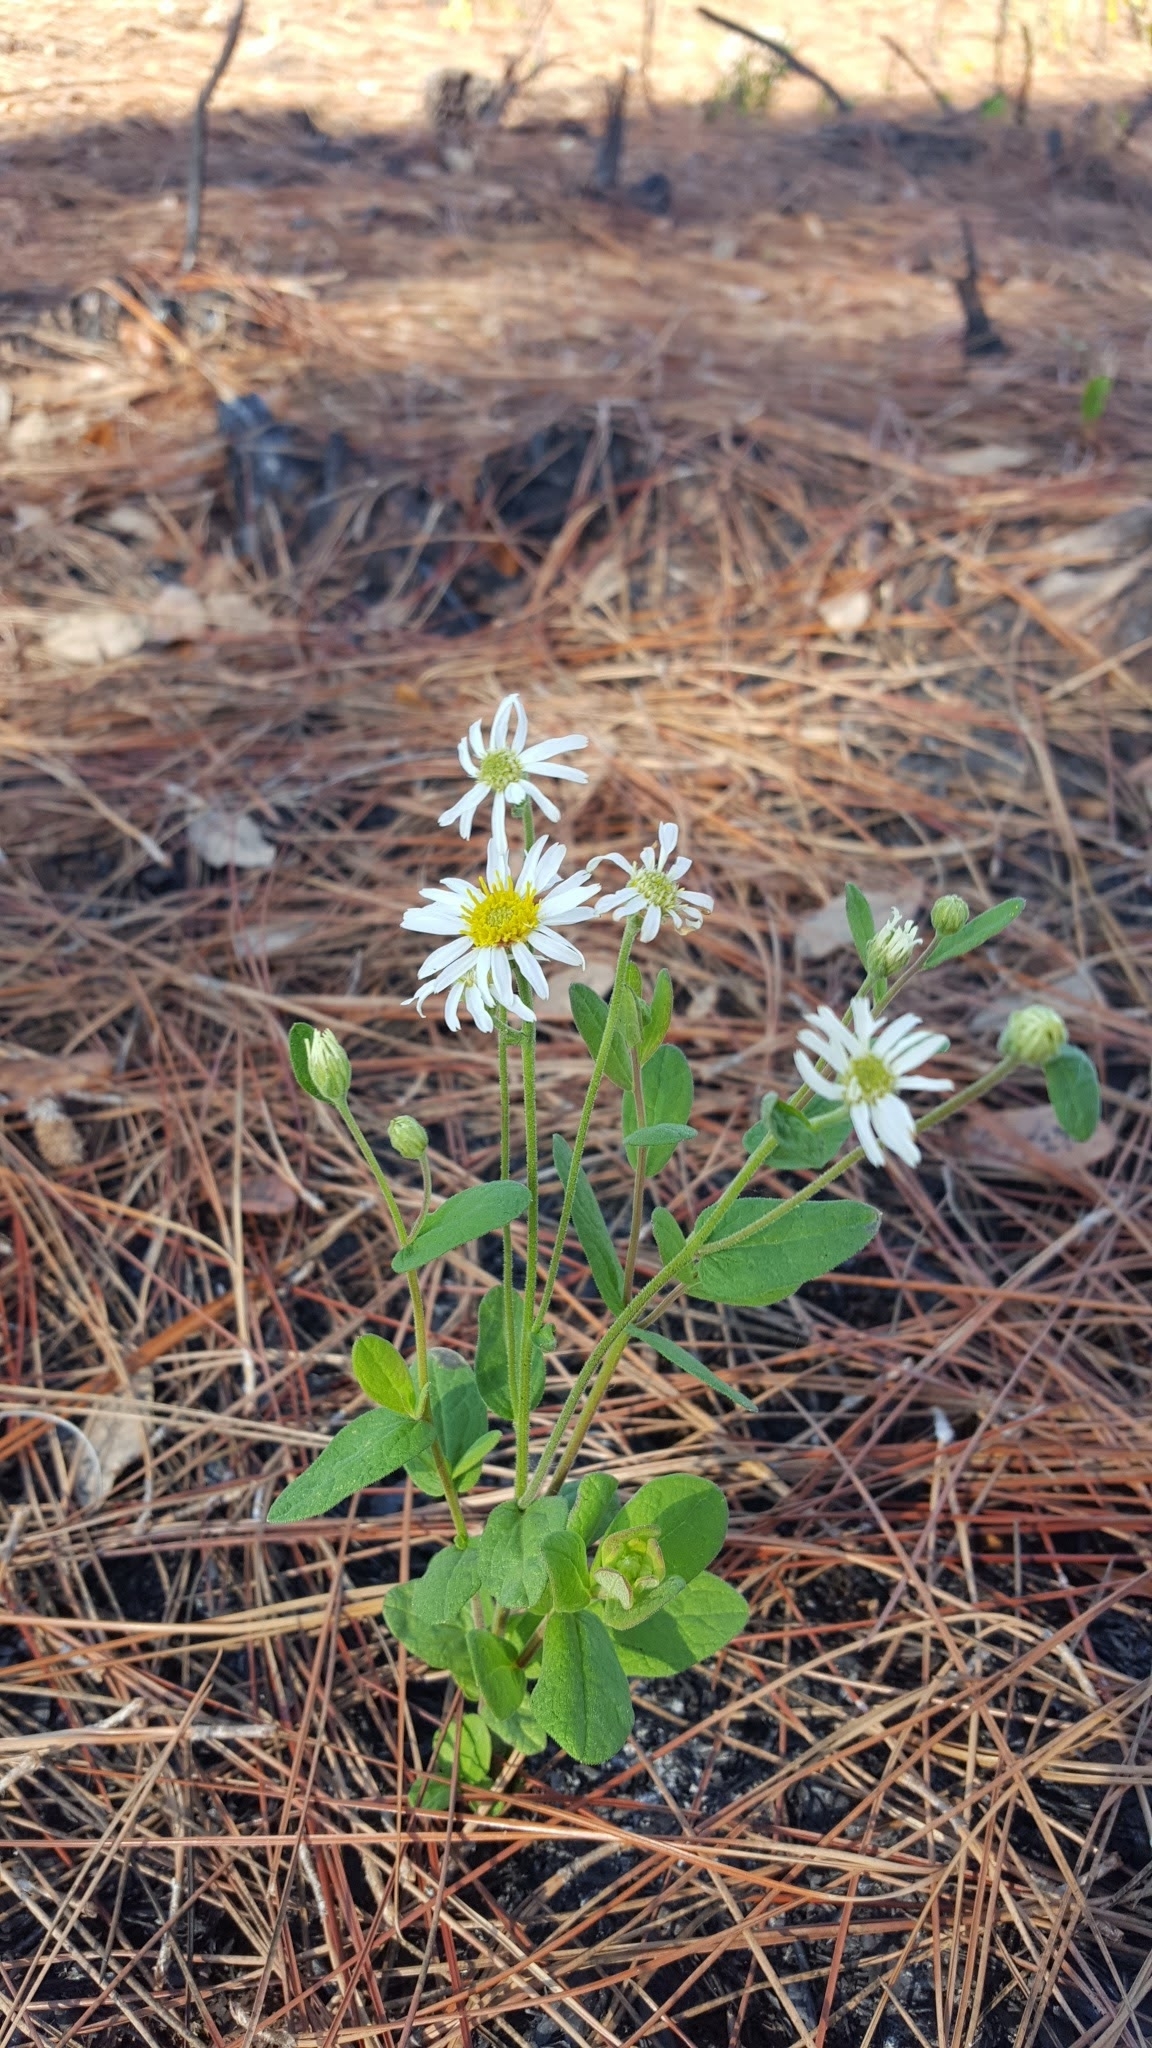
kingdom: Plantae
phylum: Tracheophyta
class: Magnoliopsida
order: Asterales
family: Asteraceae
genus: Oclemena
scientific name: Oclemena reticulata
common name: Pinebarren aster
